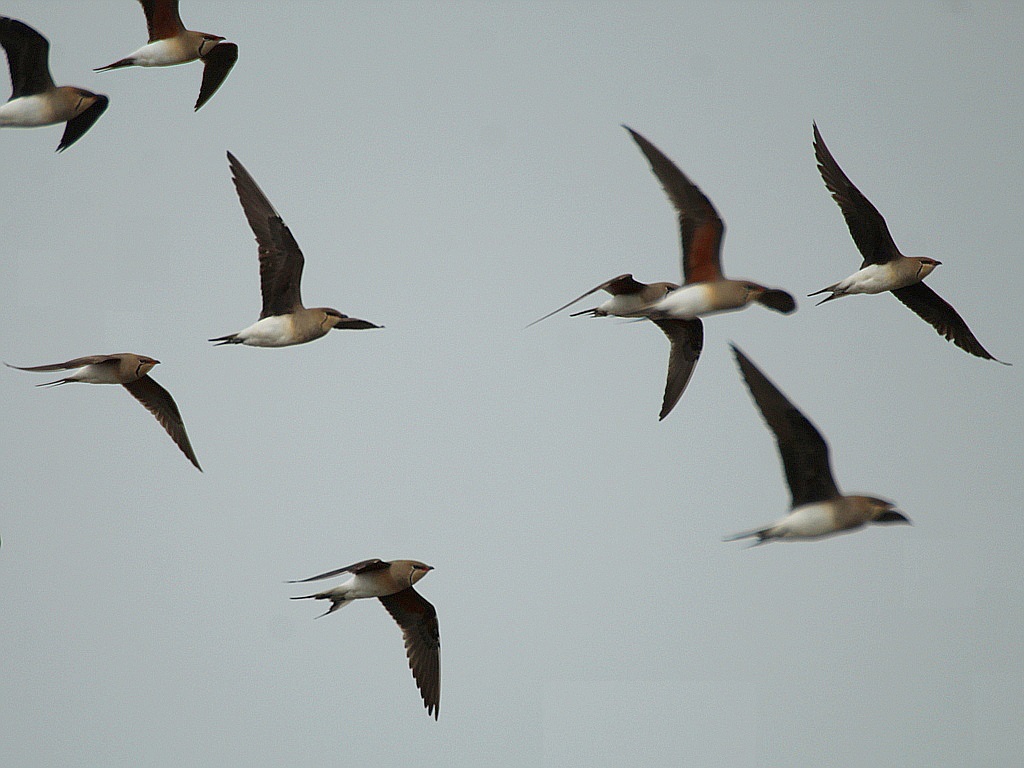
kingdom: Animalia
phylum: Chordata
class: Aves
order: Charadriiformes
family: Glareolidae
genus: Glareola
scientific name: Glareola nordmanni
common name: Black-winged pratincole
